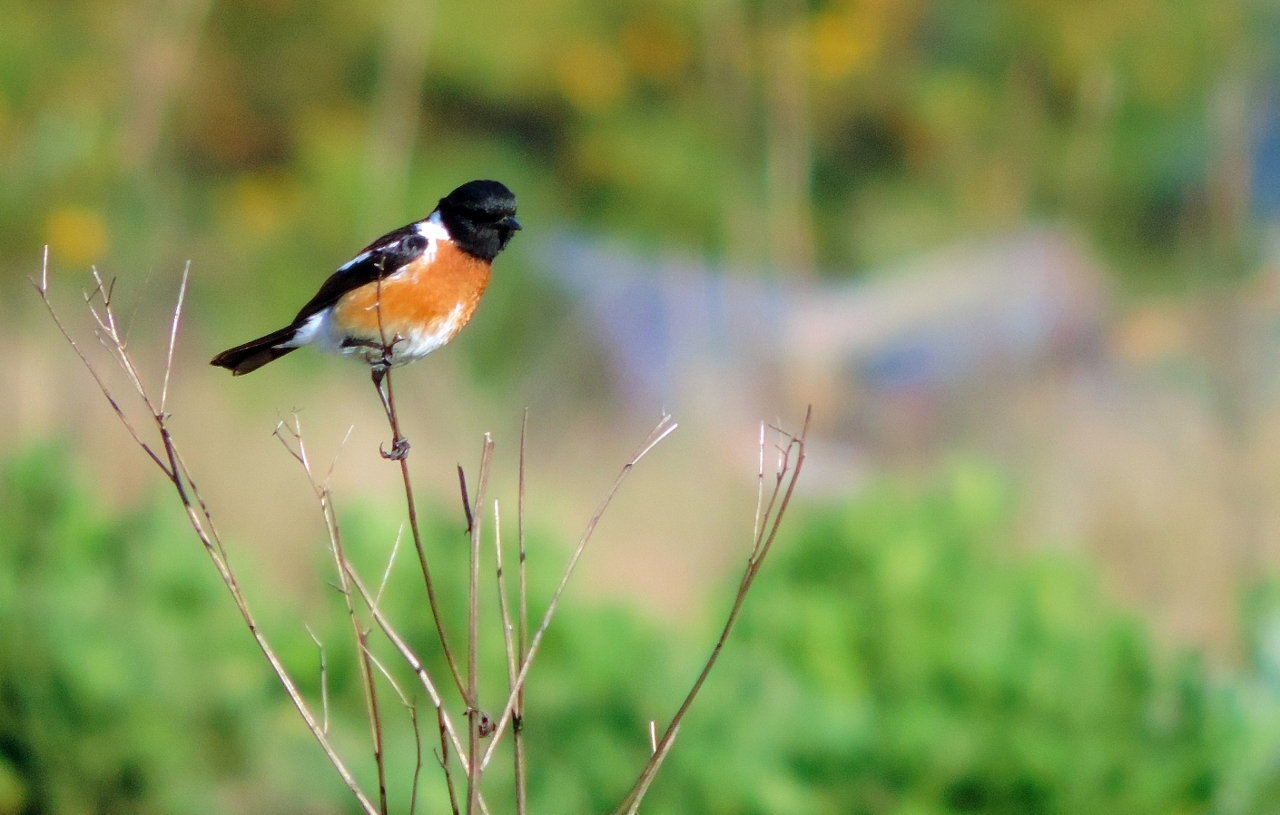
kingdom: Animalia
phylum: Chordata
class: Aves
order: Passeriformes
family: Muscicapidae
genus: Saxicola
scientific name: Saxicola torquatus
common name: African stonechat
